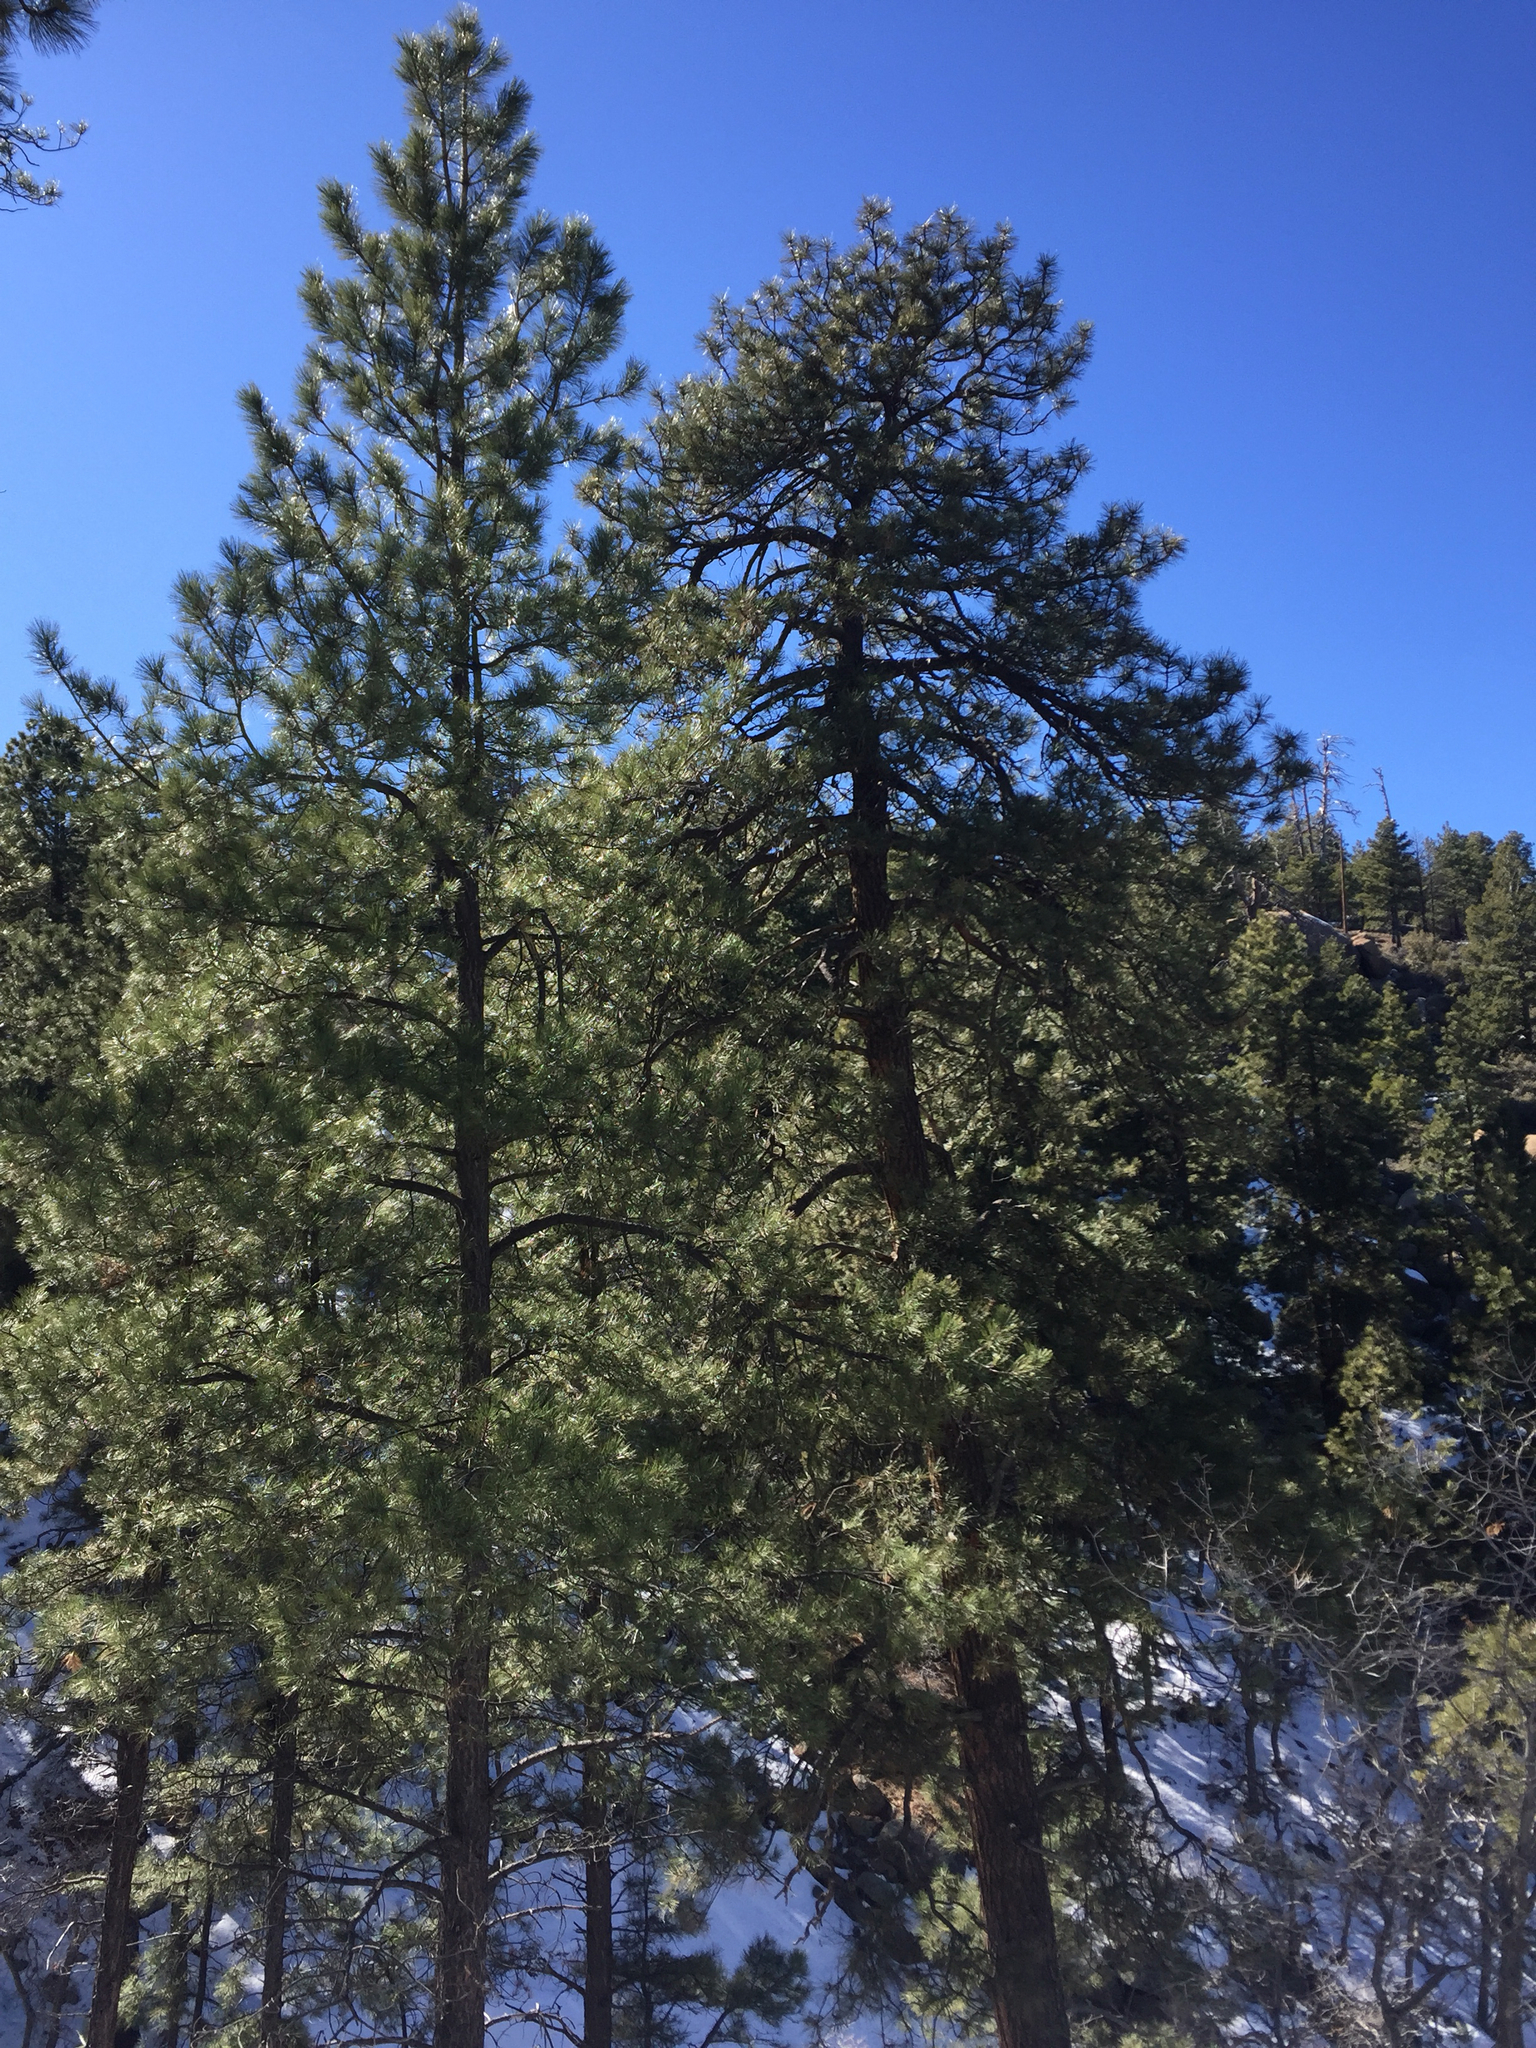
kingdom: Plantae
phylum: Tracheophyta
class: Pinopsida
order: Pinales
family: Pinaceae
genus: Pinus
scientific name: Pinus ponderosa
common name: Western yellow-pine
